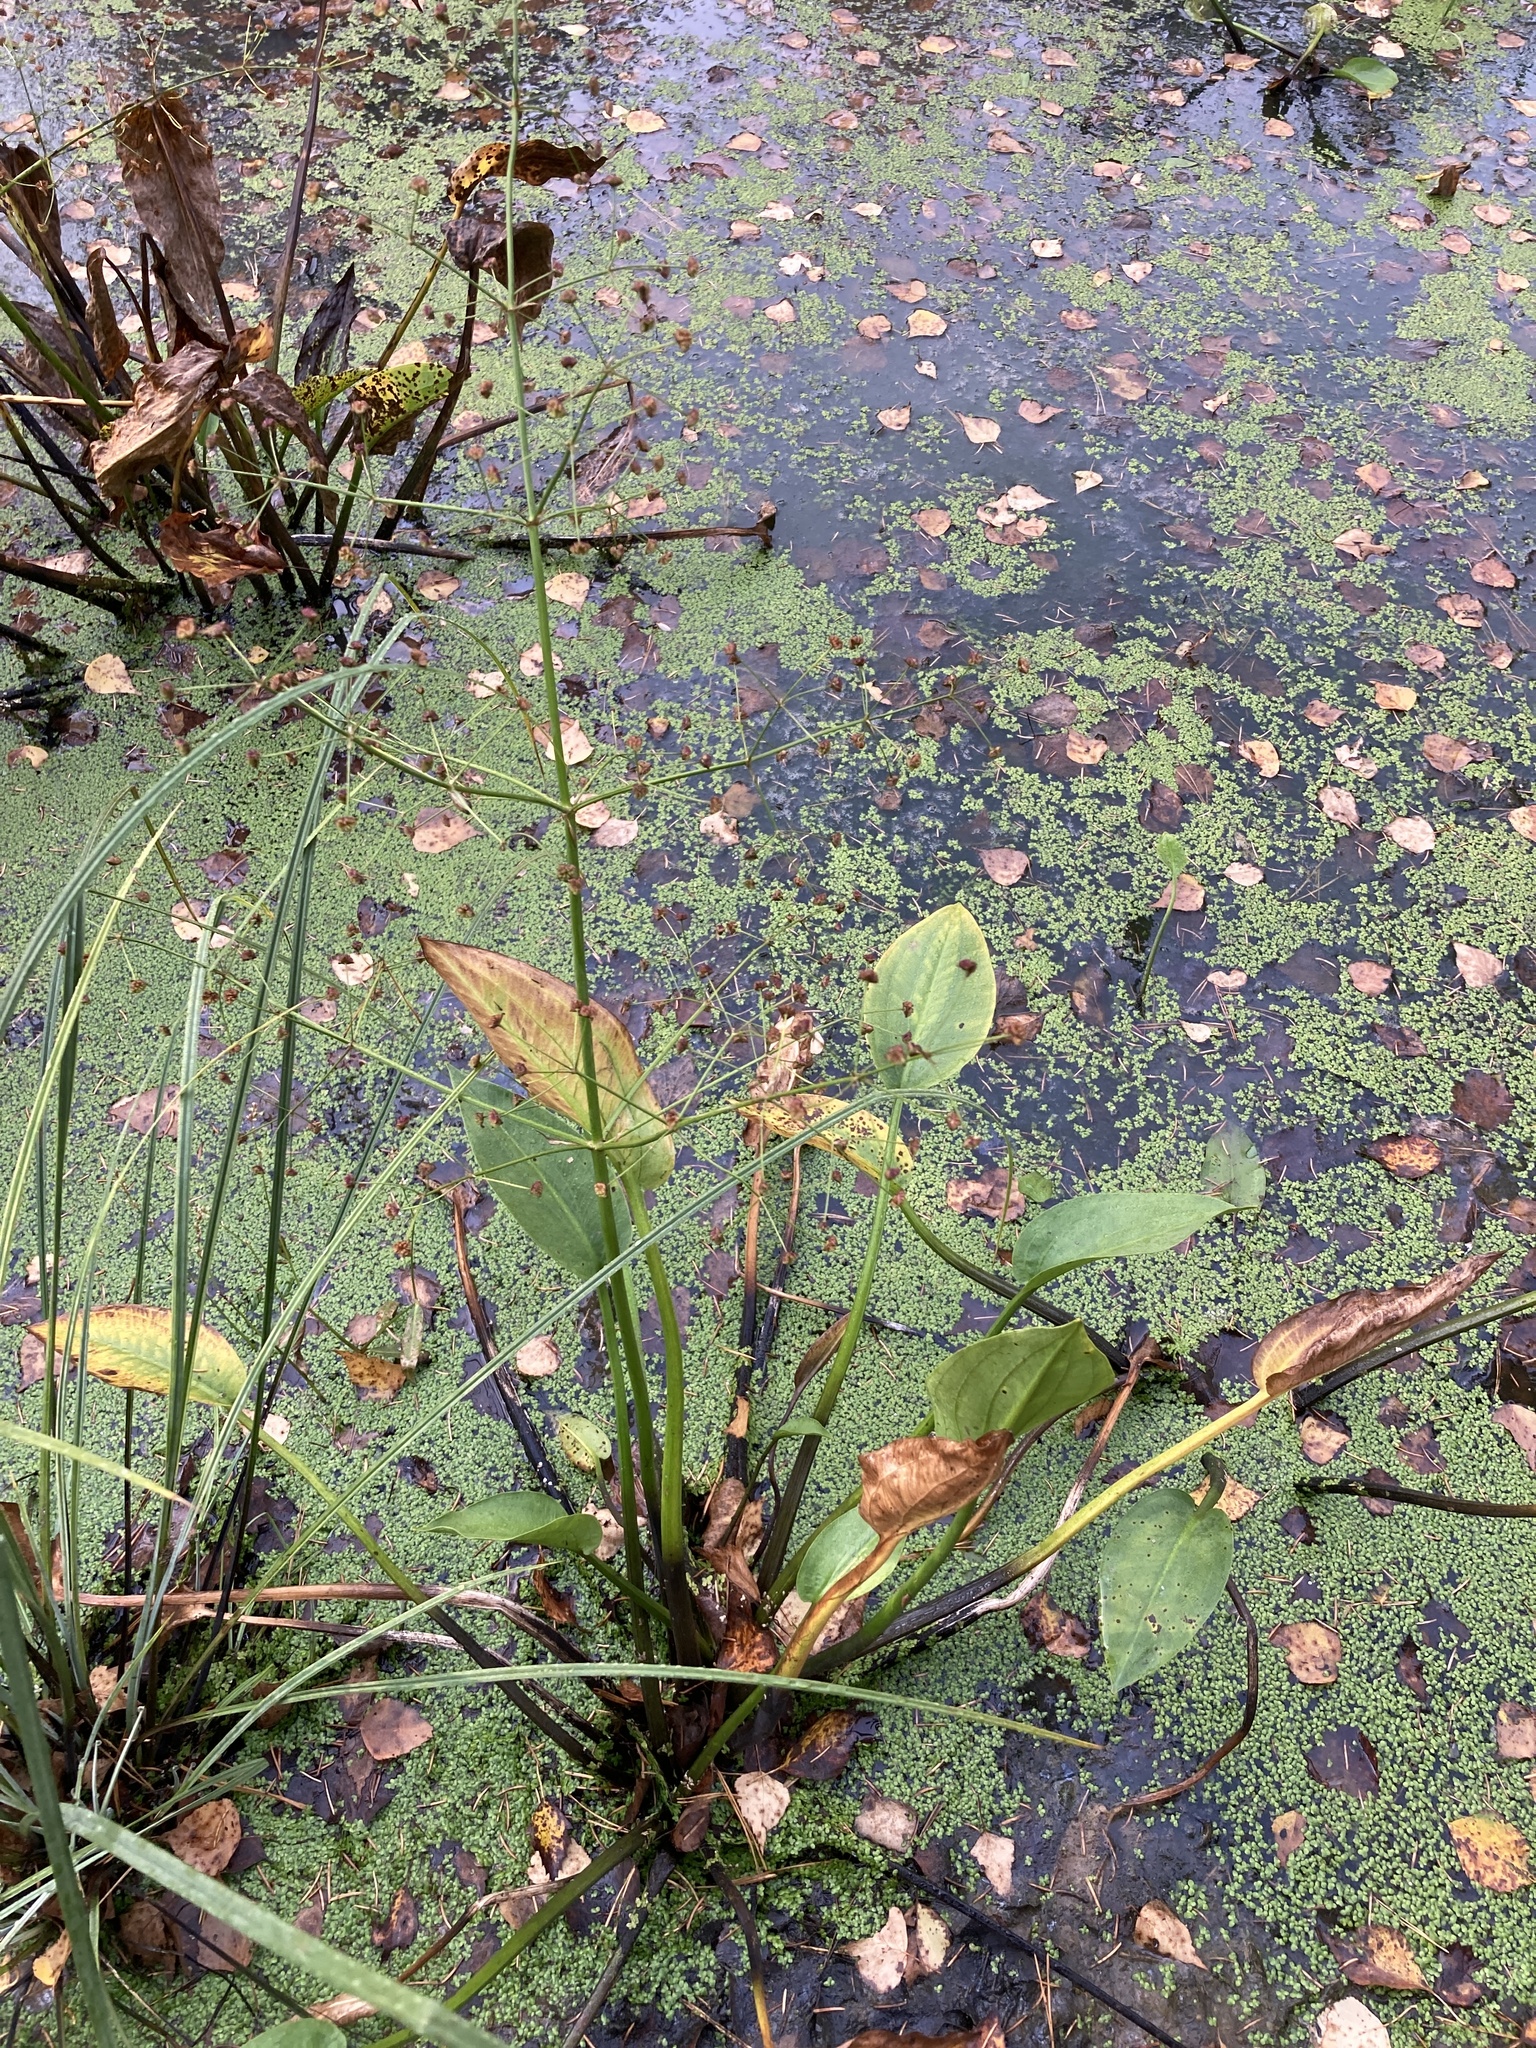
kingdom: Plantae
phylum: Tracheophyta
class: Liliopsida
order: Alismatales
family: Alismataceae
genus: Alisma
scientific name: Alisma plantago-aquatica
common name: Water-plantain
